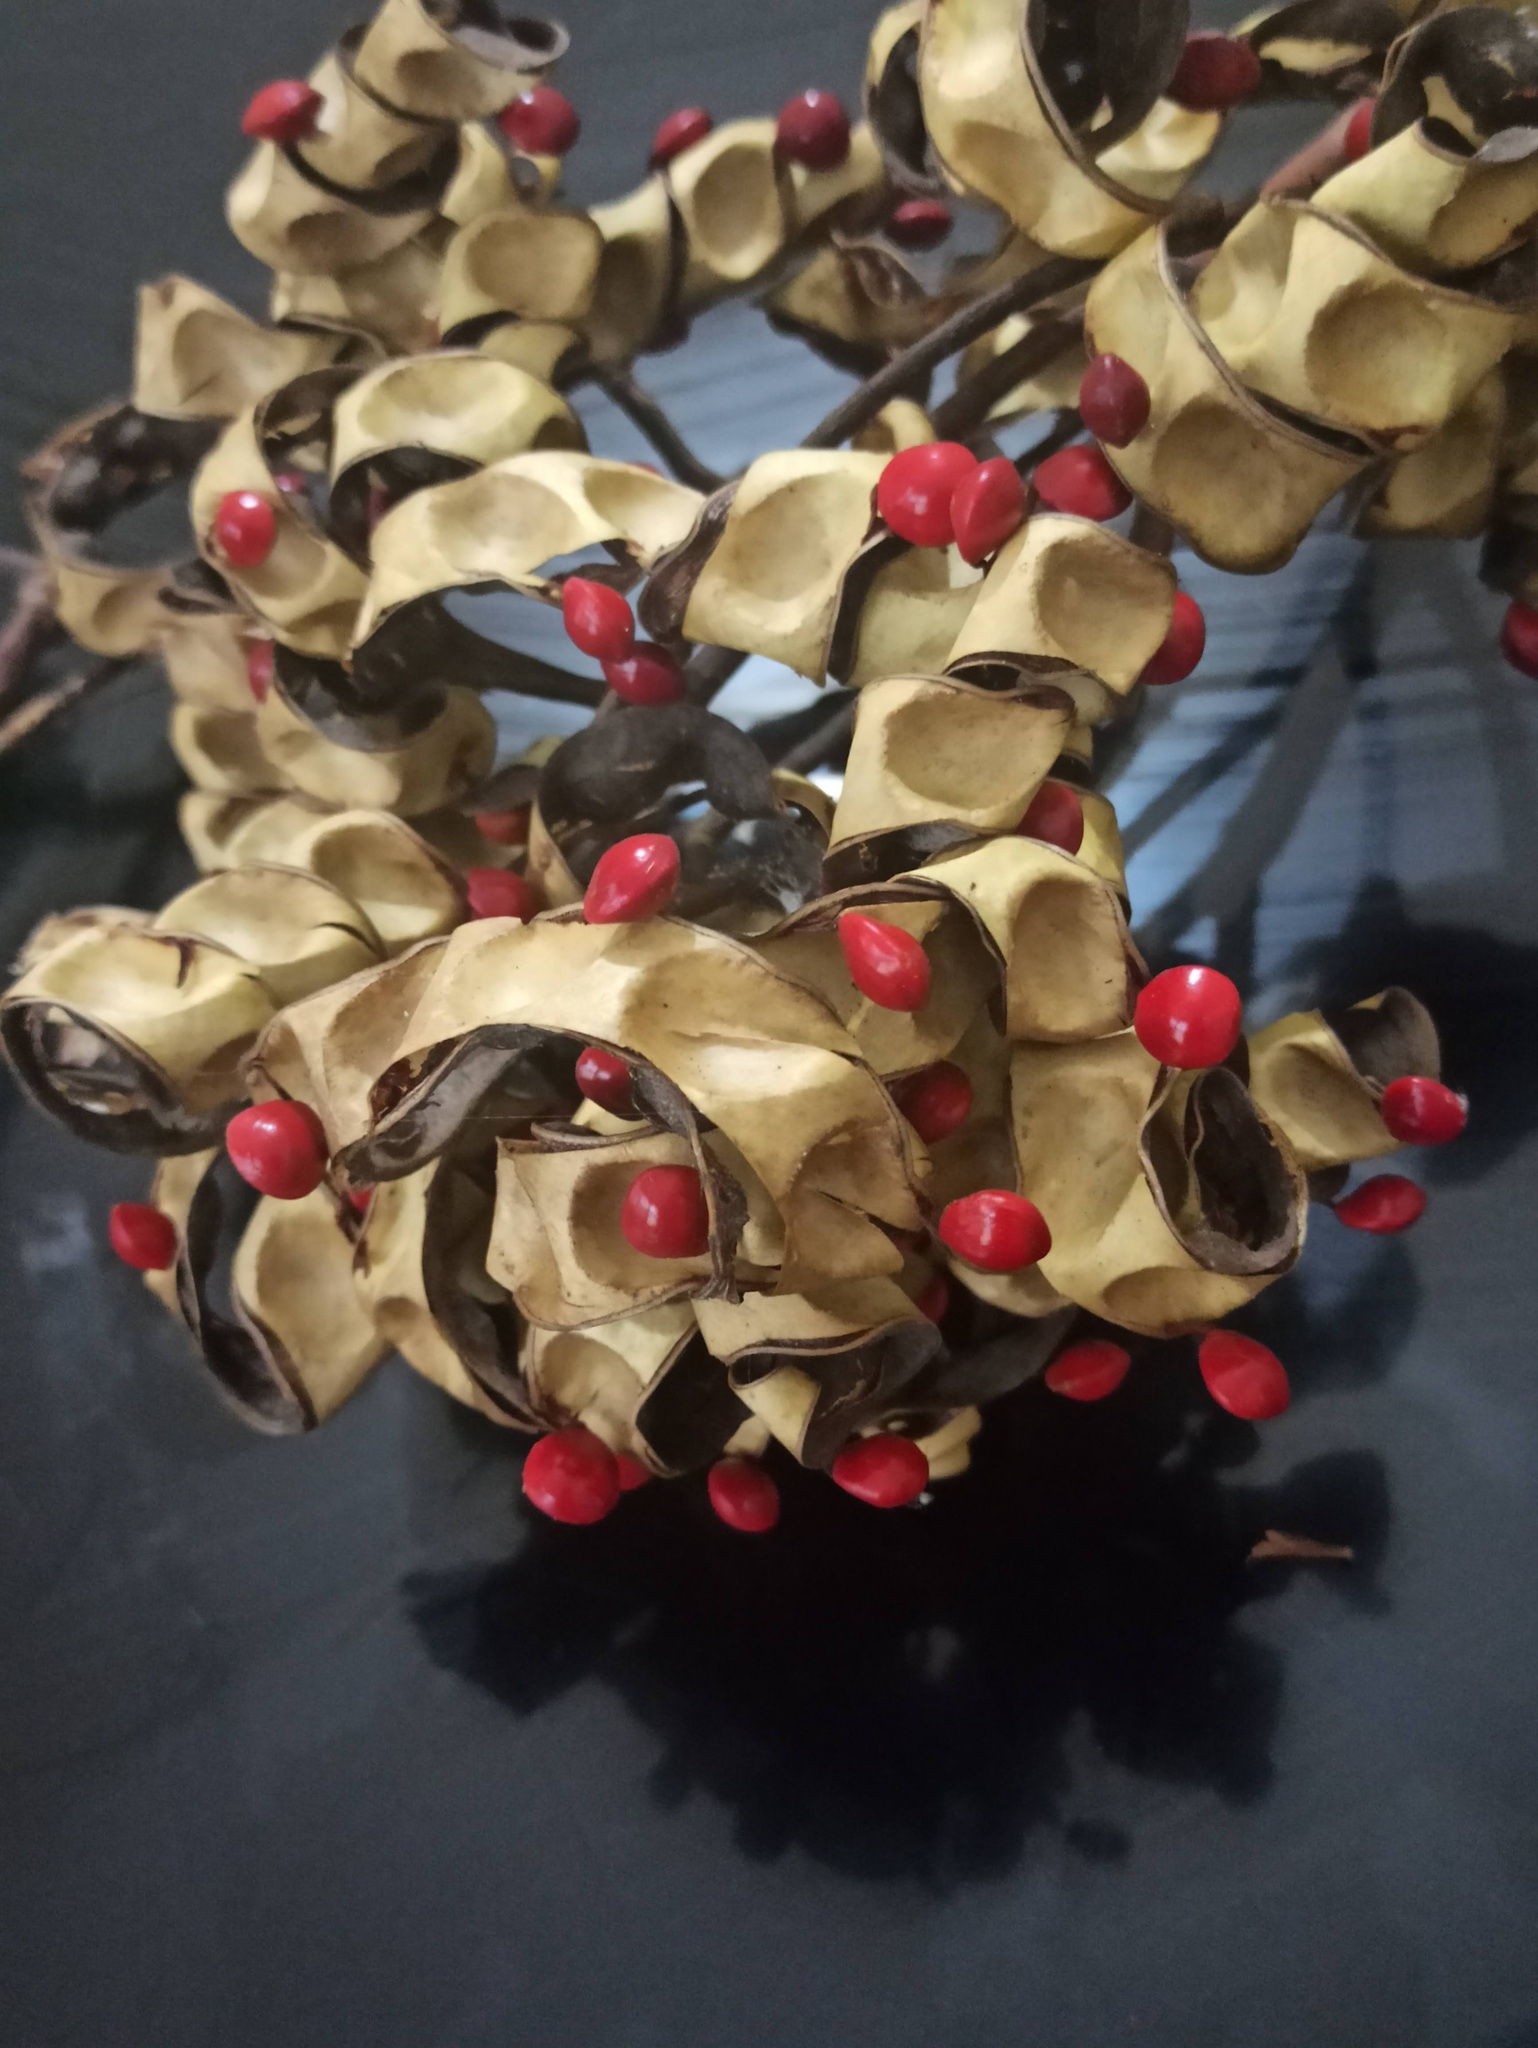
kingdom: Plantae
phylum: Tracheophyta
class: Magnoliopsida
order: Fabales
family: Fabaceae
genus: Adenanthera
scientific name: Adenanthera pavonina
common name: Red beadtree
